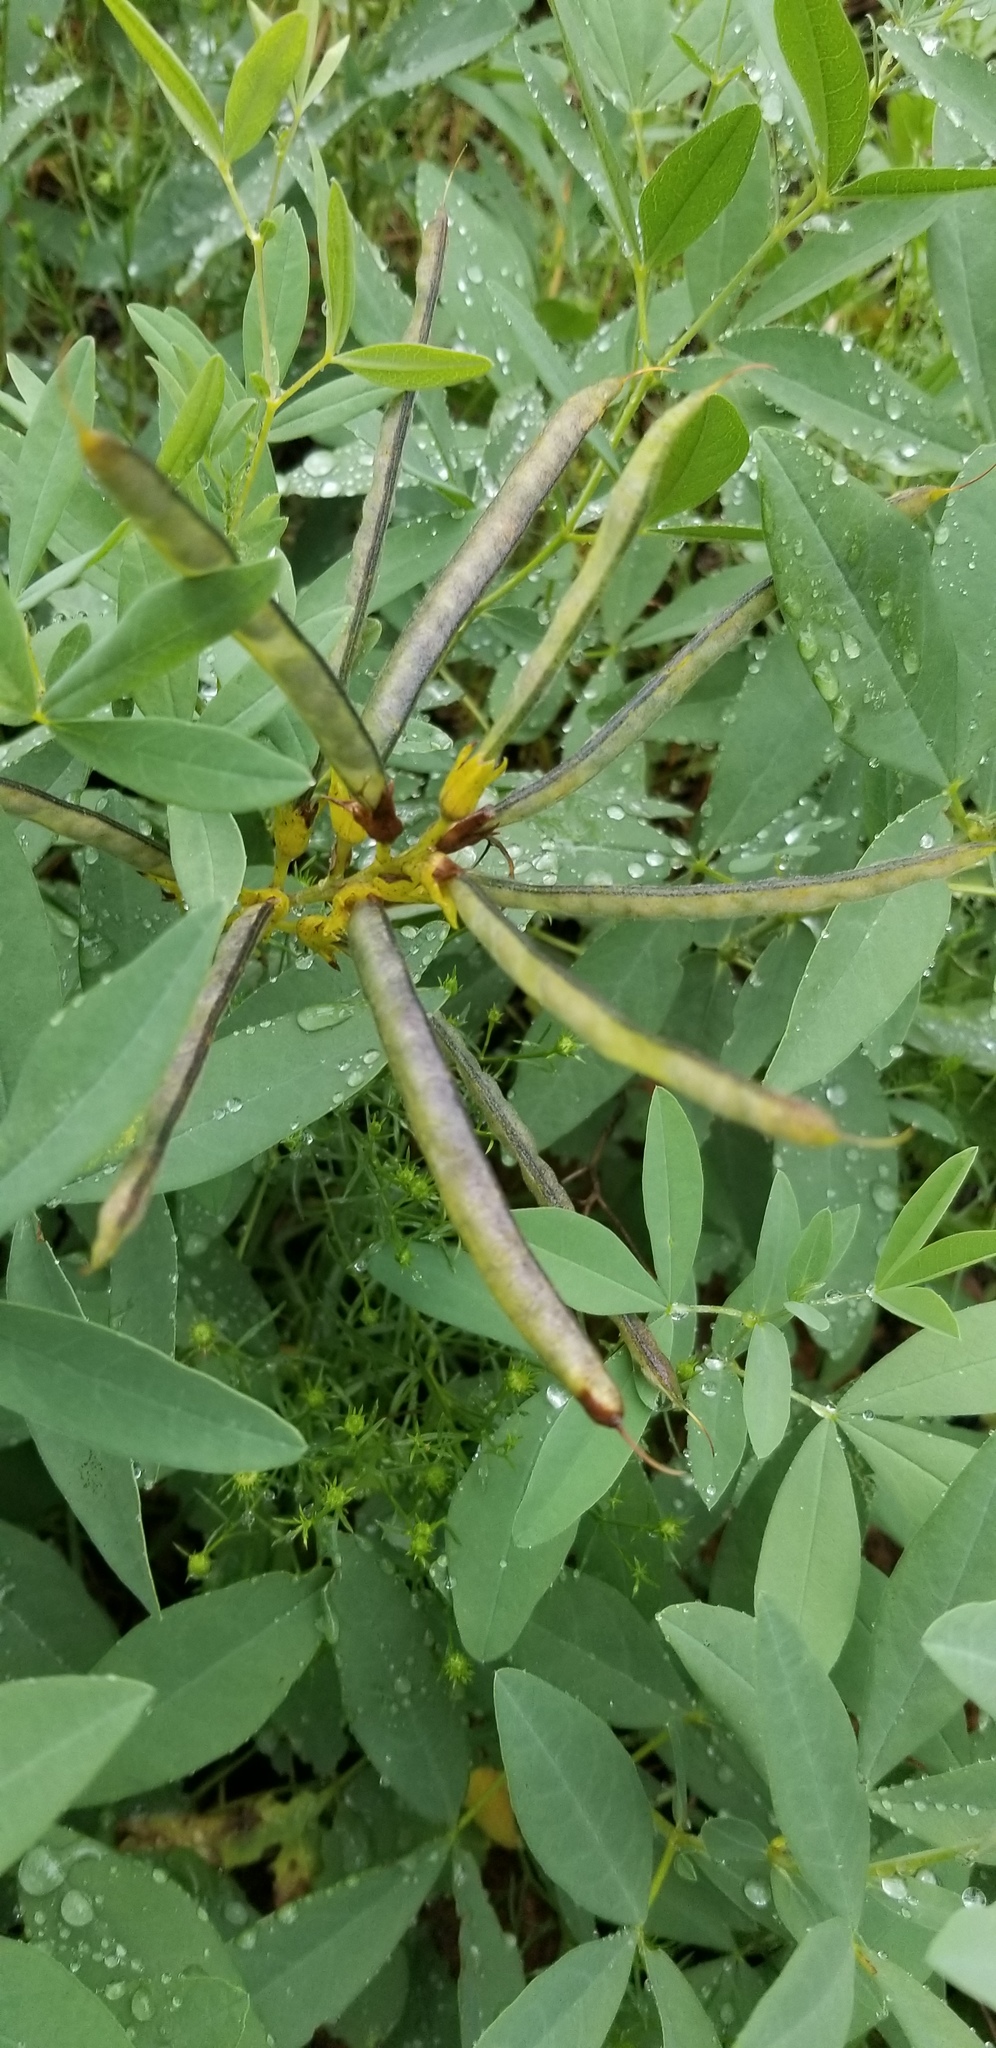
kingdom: Plantae
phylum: Tracheophyta
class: Magnoliopsida
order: Fabales
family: Fabaceae
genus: Thermopsis
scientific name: Thermopsis montana
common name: False lupin
